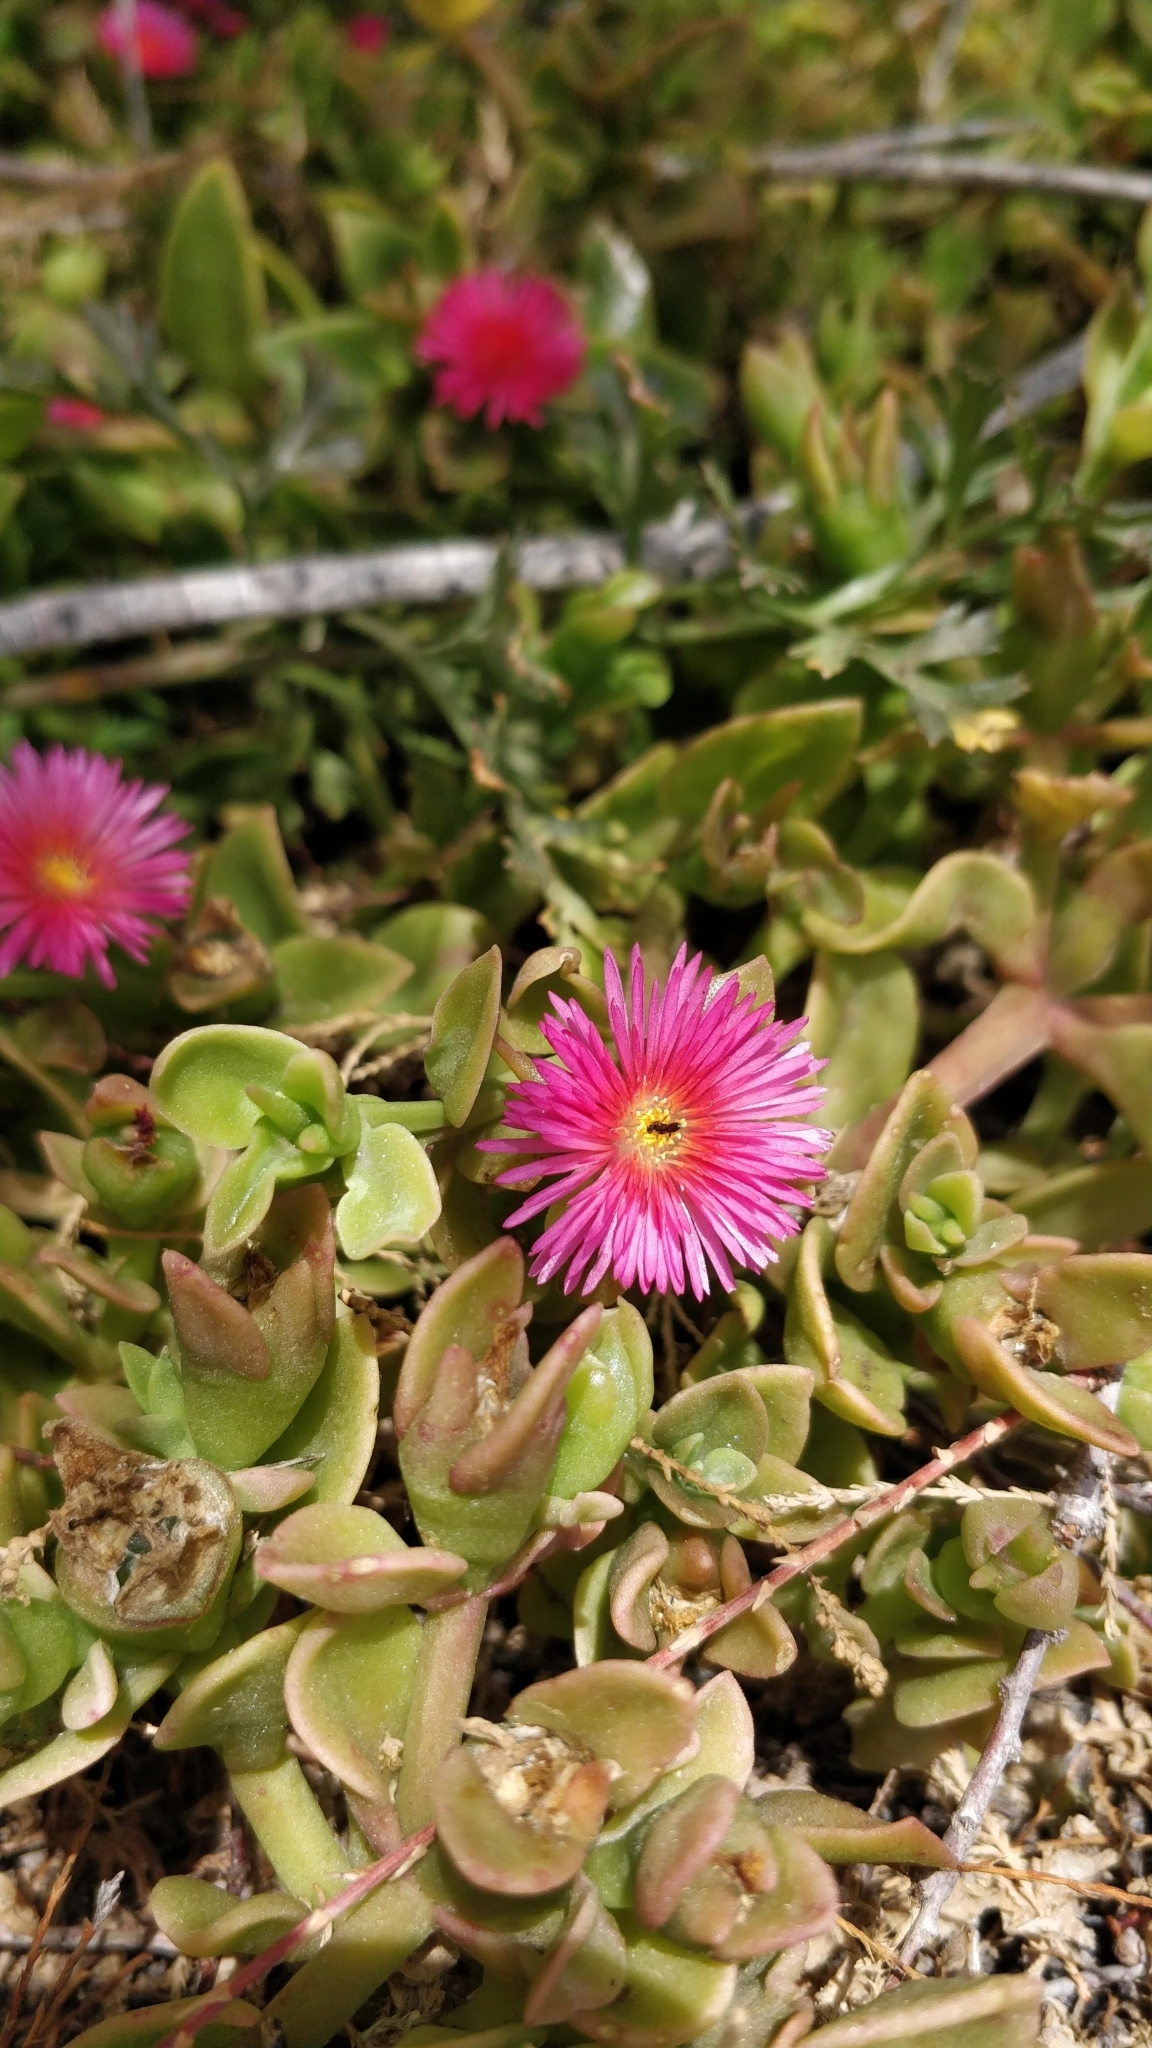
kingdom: Plantae
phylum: Tracheophyta
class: Magnoliopsida
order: Caryophyllales
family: Aizoaceae
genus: Mesembryanthemum
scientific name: Mesembryanthemum cordifolium
